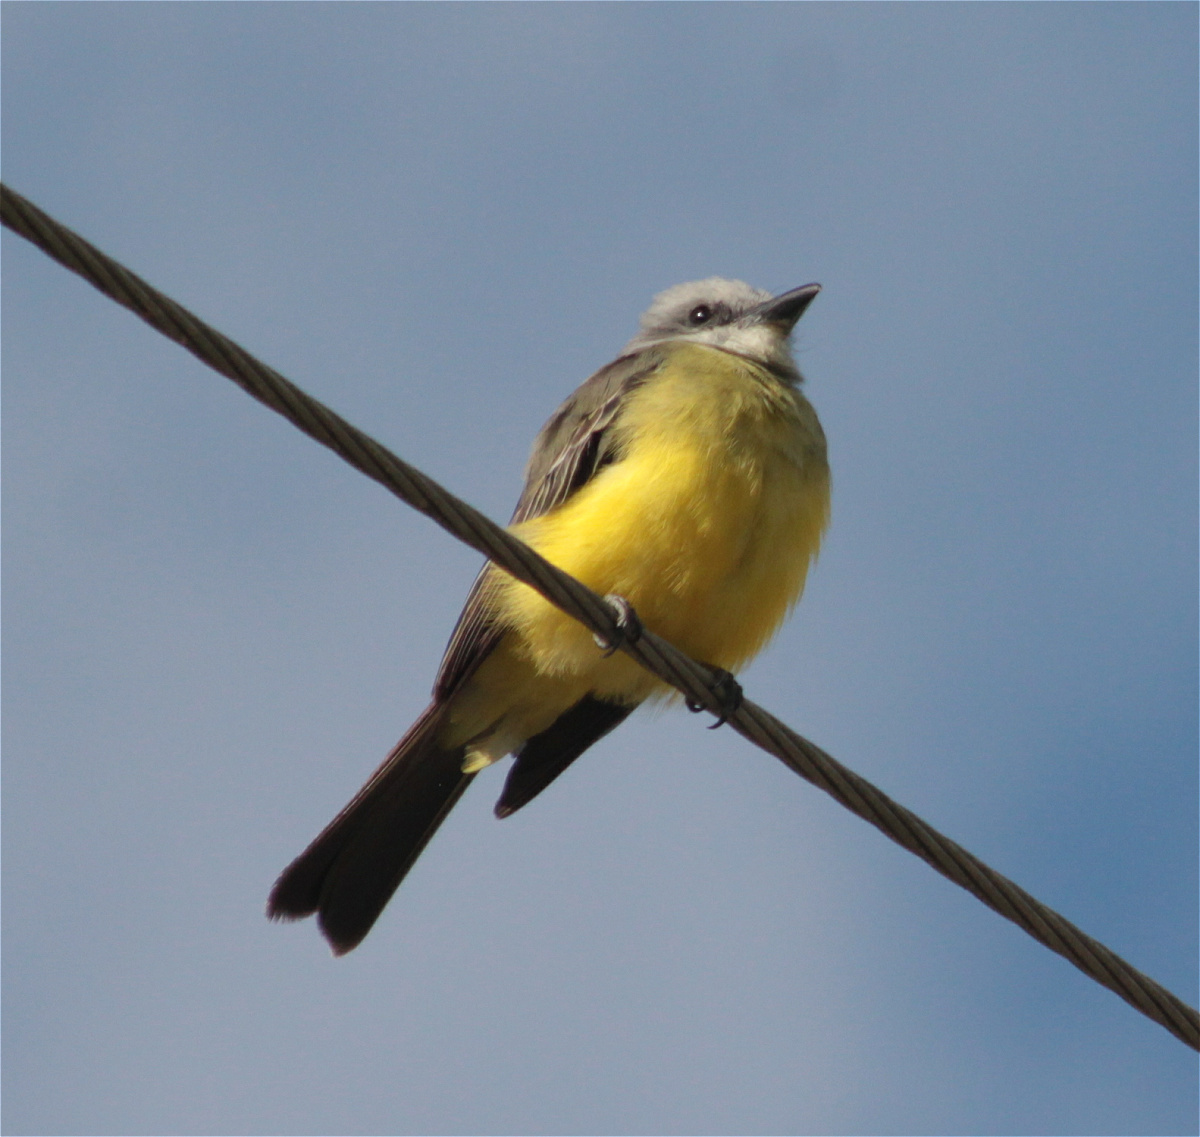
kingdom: Animalia
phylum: Chordata
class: Aves
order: Passeriformes
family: Tyrannidae
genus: Tyrannus
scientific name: Tyrannus melancholicus
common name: Tropical kingbird
